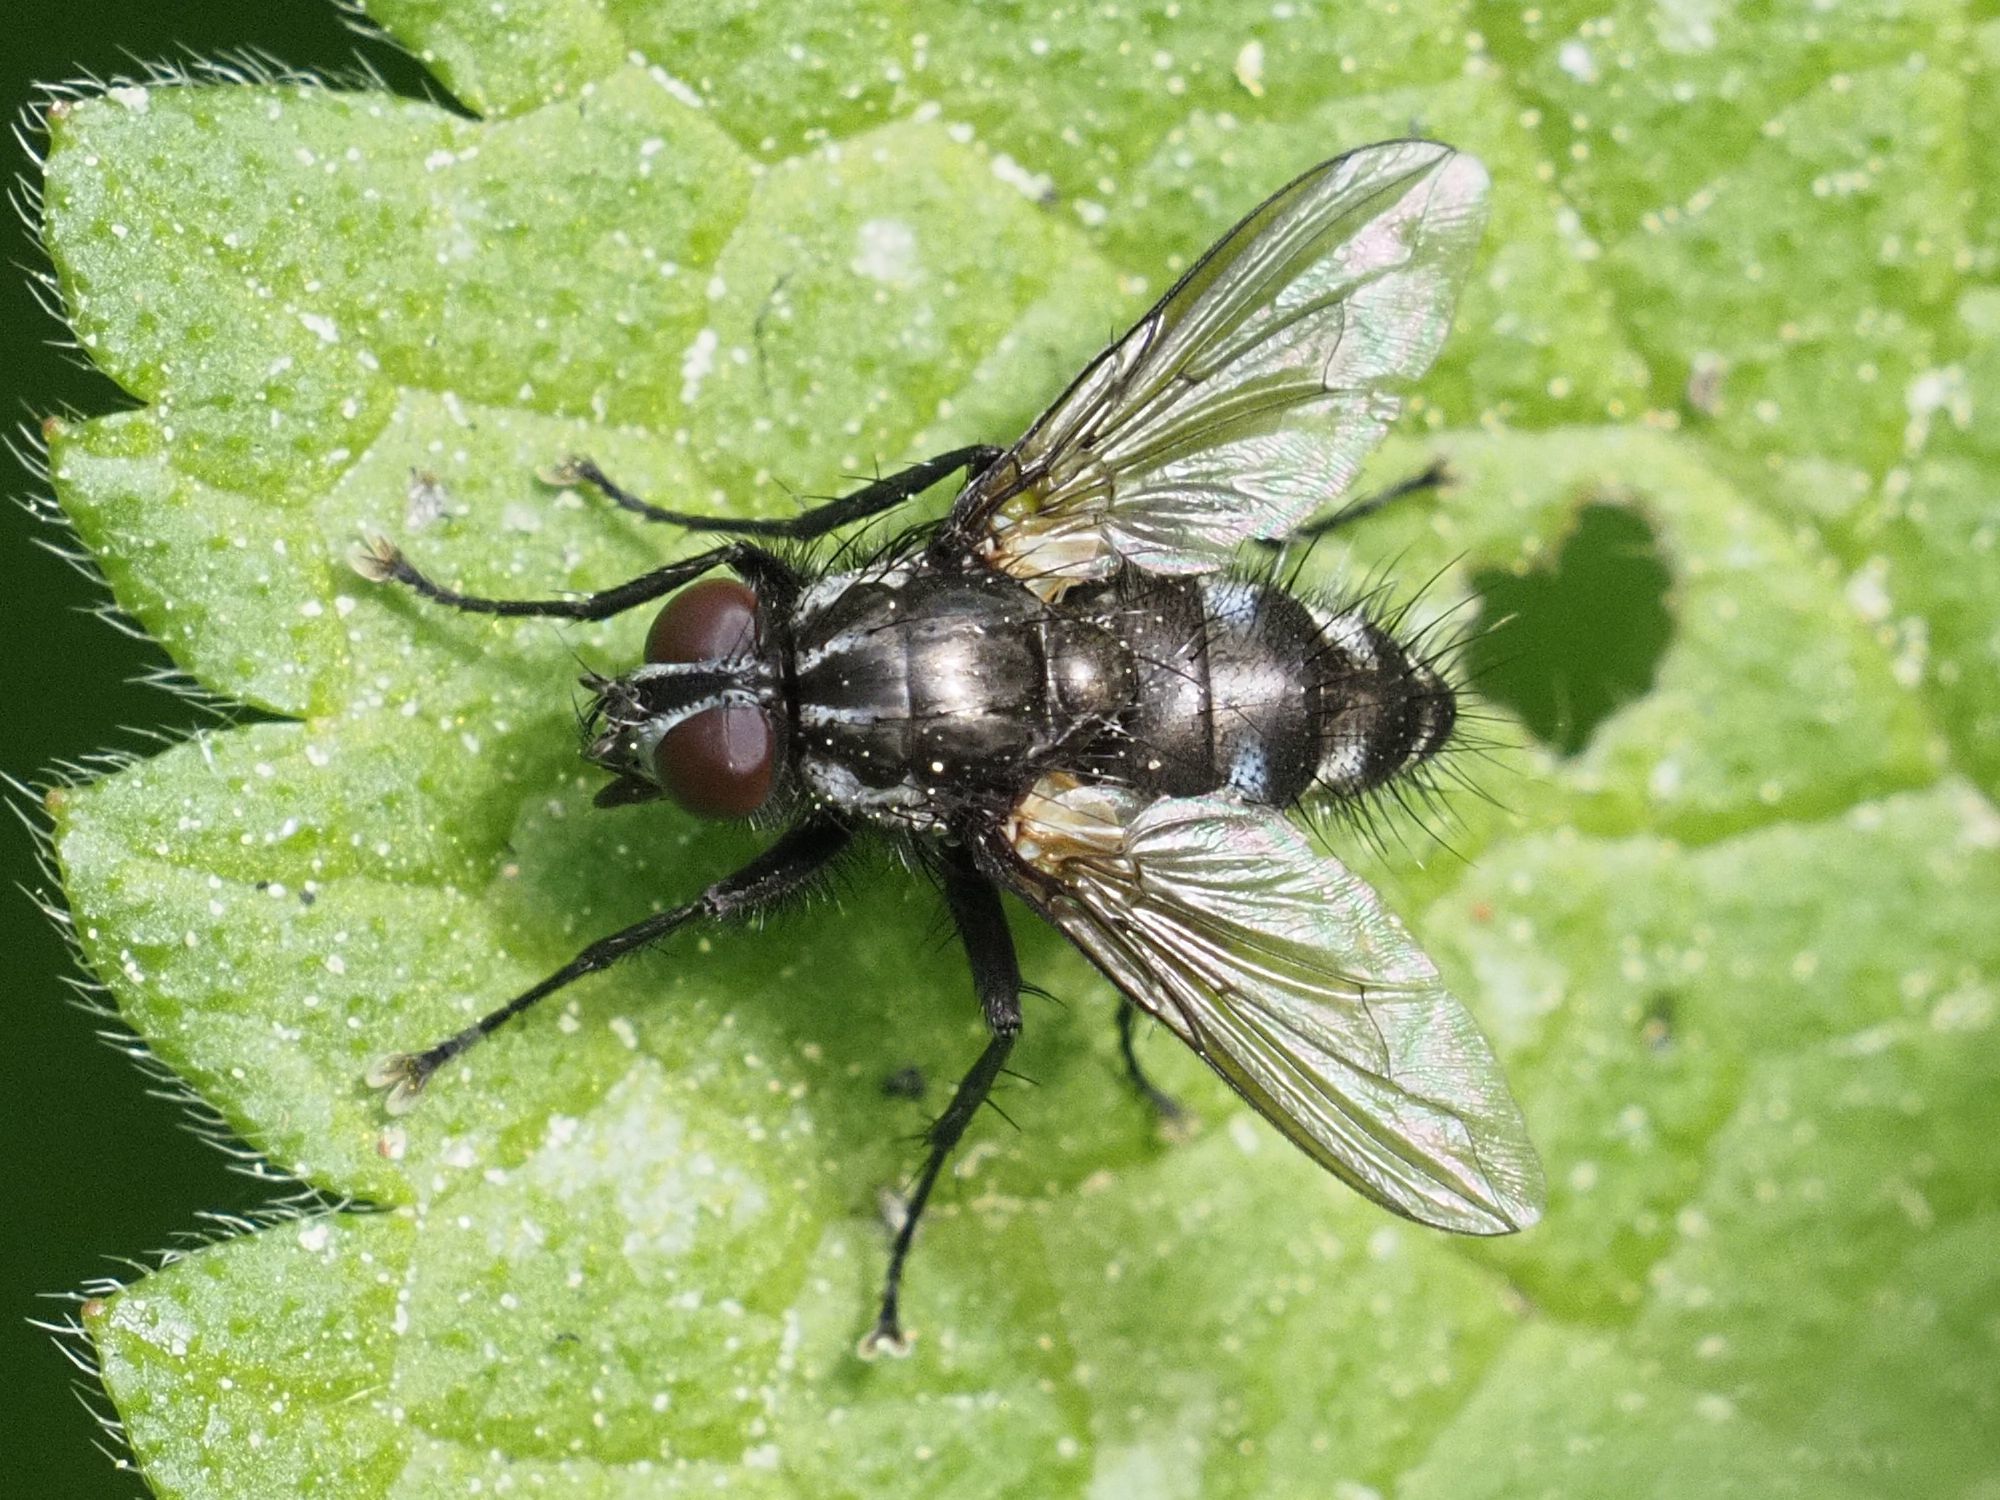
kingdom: Animalia
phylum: Arthropoda
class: Insecta
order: Diptera
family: Calliphoridae
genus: Rhinomorinia
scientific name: Rhinomorinia sarcophagina
